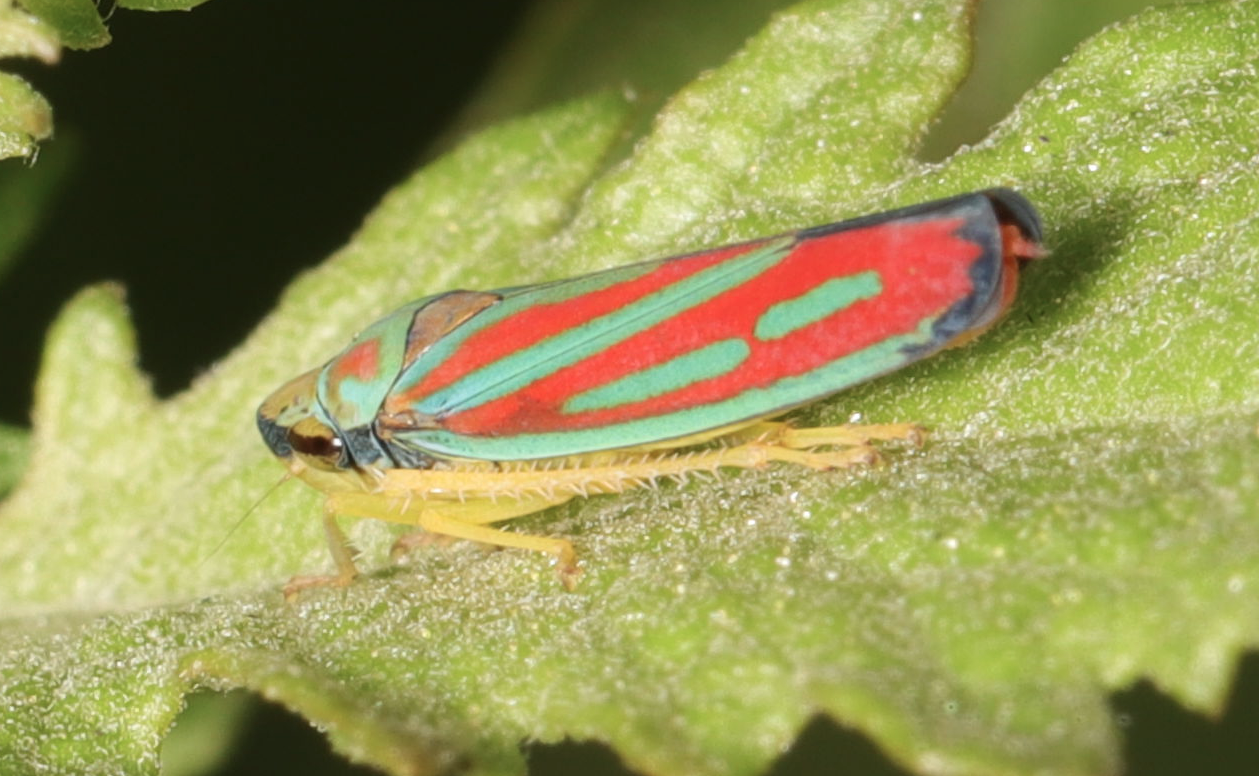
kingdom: Animalia
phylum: Arthropoda
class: Insecta
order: Hemiptera
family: Cicadellidae
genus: Graphocephala
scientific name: Graphocephala coccinea
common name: Candy-striped leafhopper
